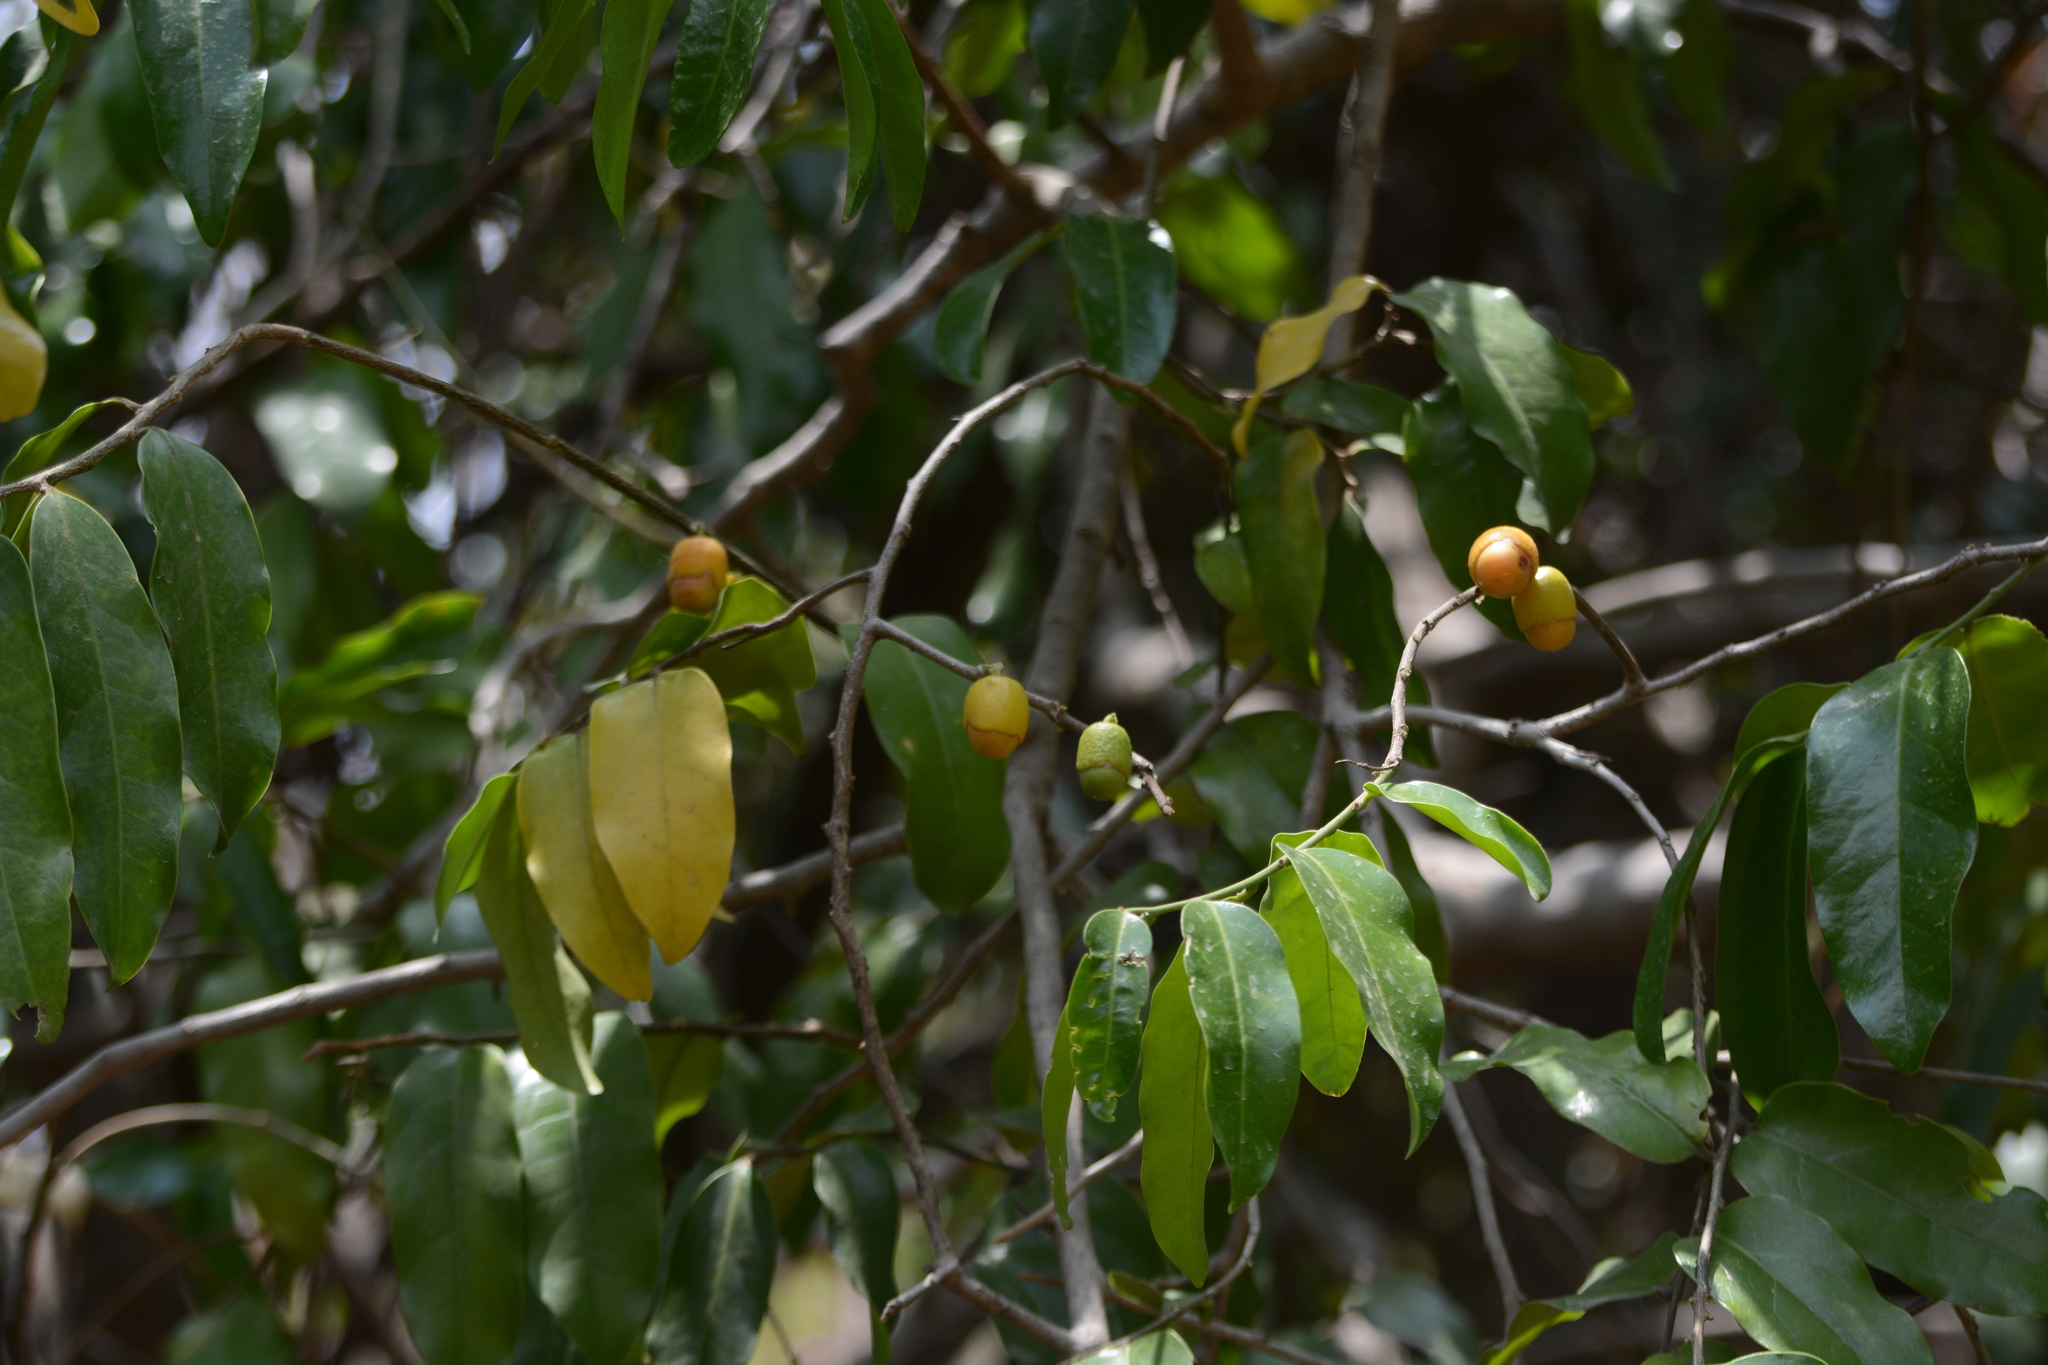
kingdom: Plantae
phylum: Tracheophyta
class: Magnoliopsida
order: Santalales
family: Olacaceae
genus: Olax
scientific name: Olax imbricata
